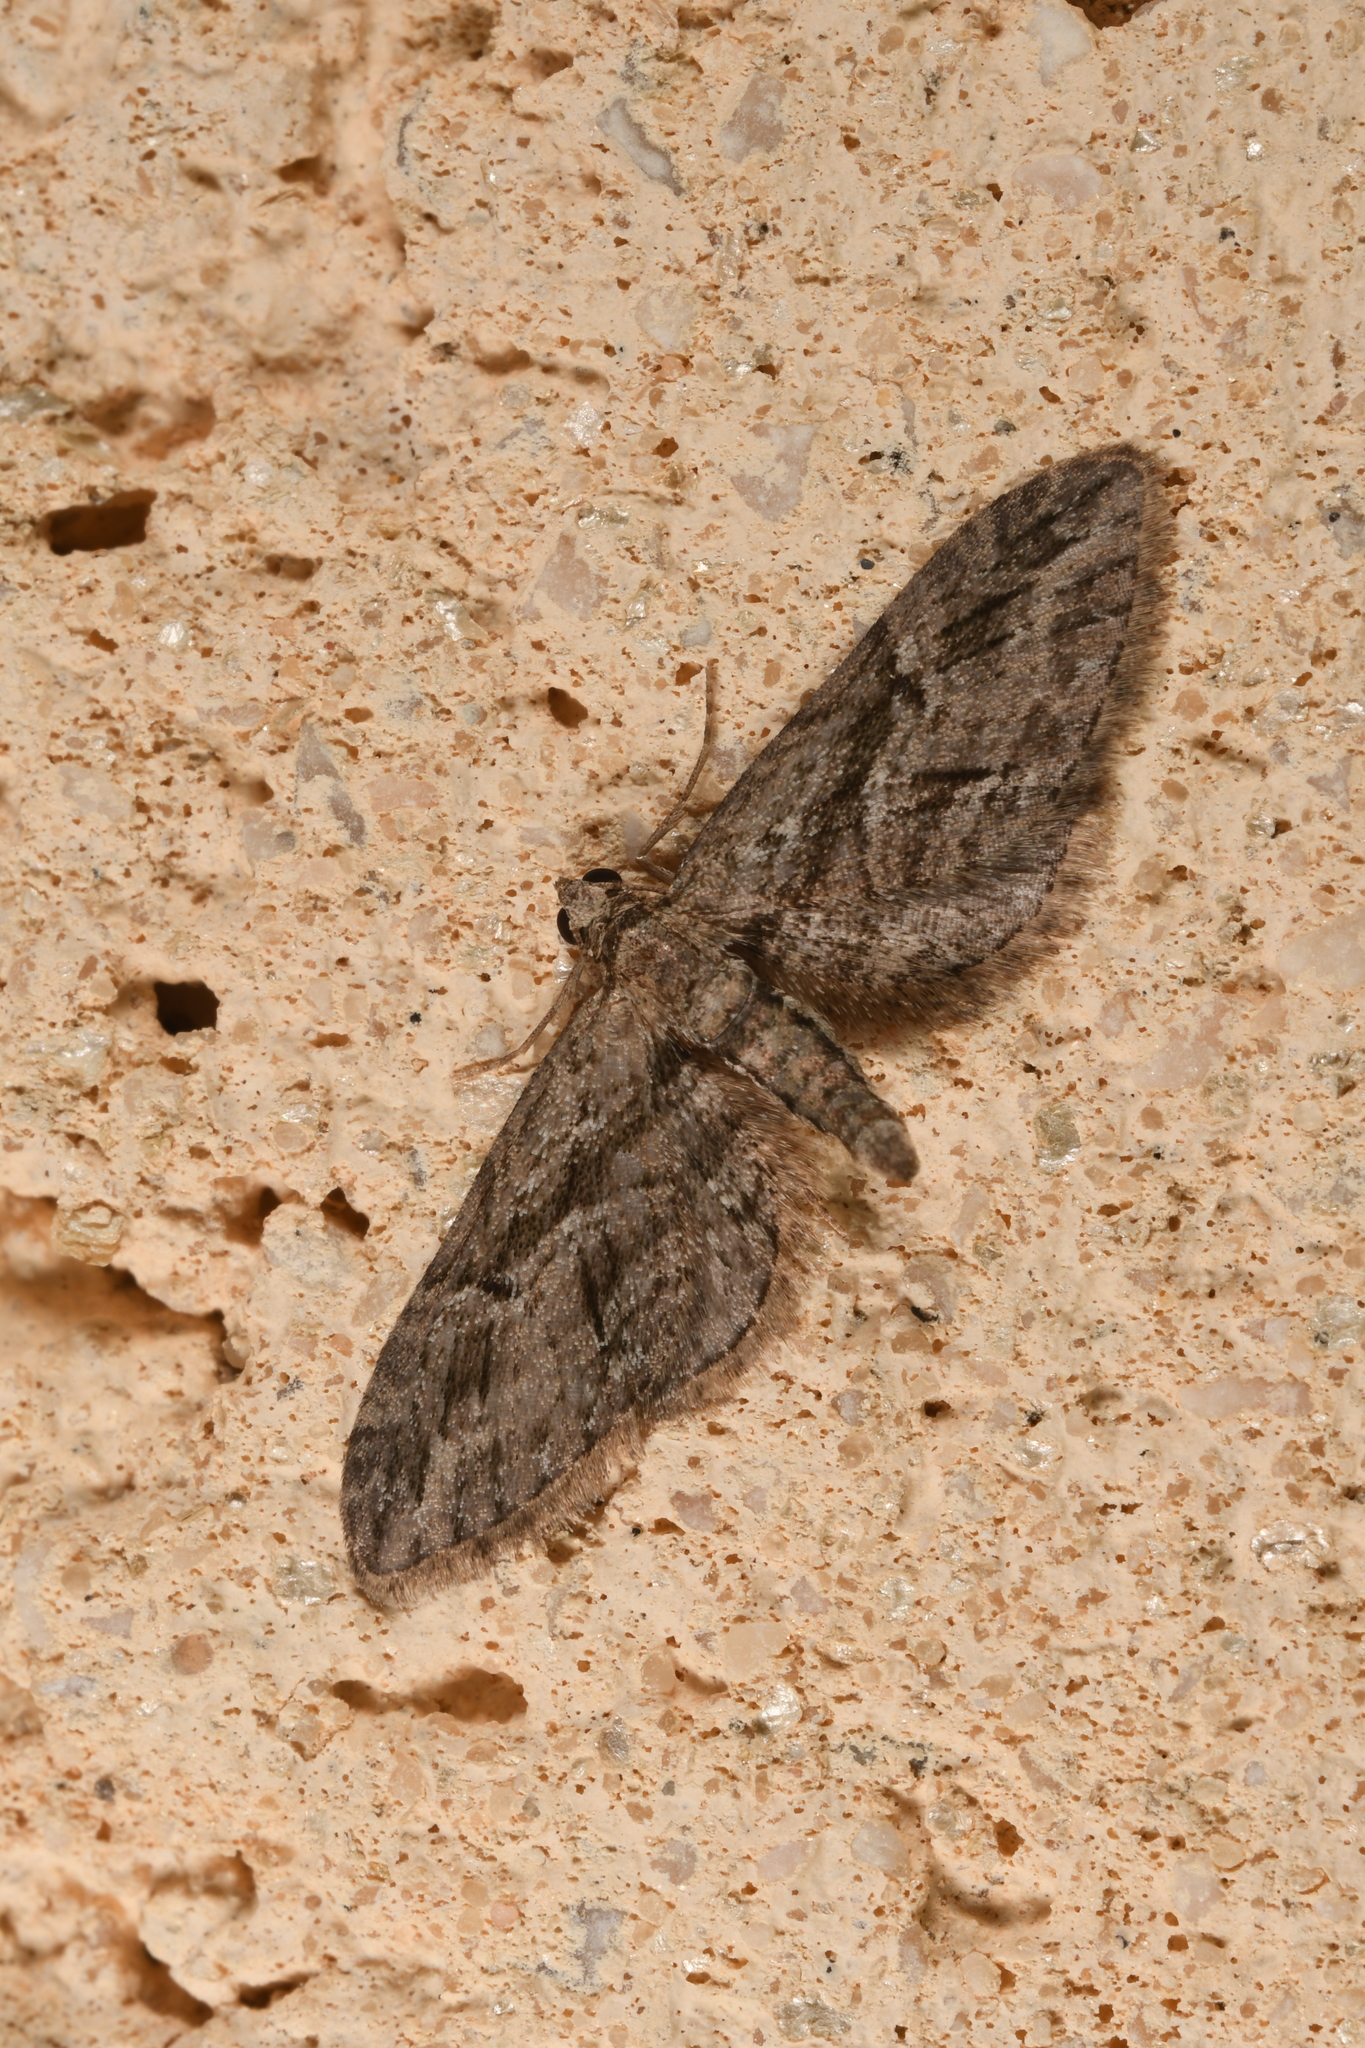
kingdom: Animalia
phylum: Arthropoda
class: Insecta
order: Lepidoptera
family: Geometridae
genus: Eupithecia
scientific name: Eupithecia oxycedrata
